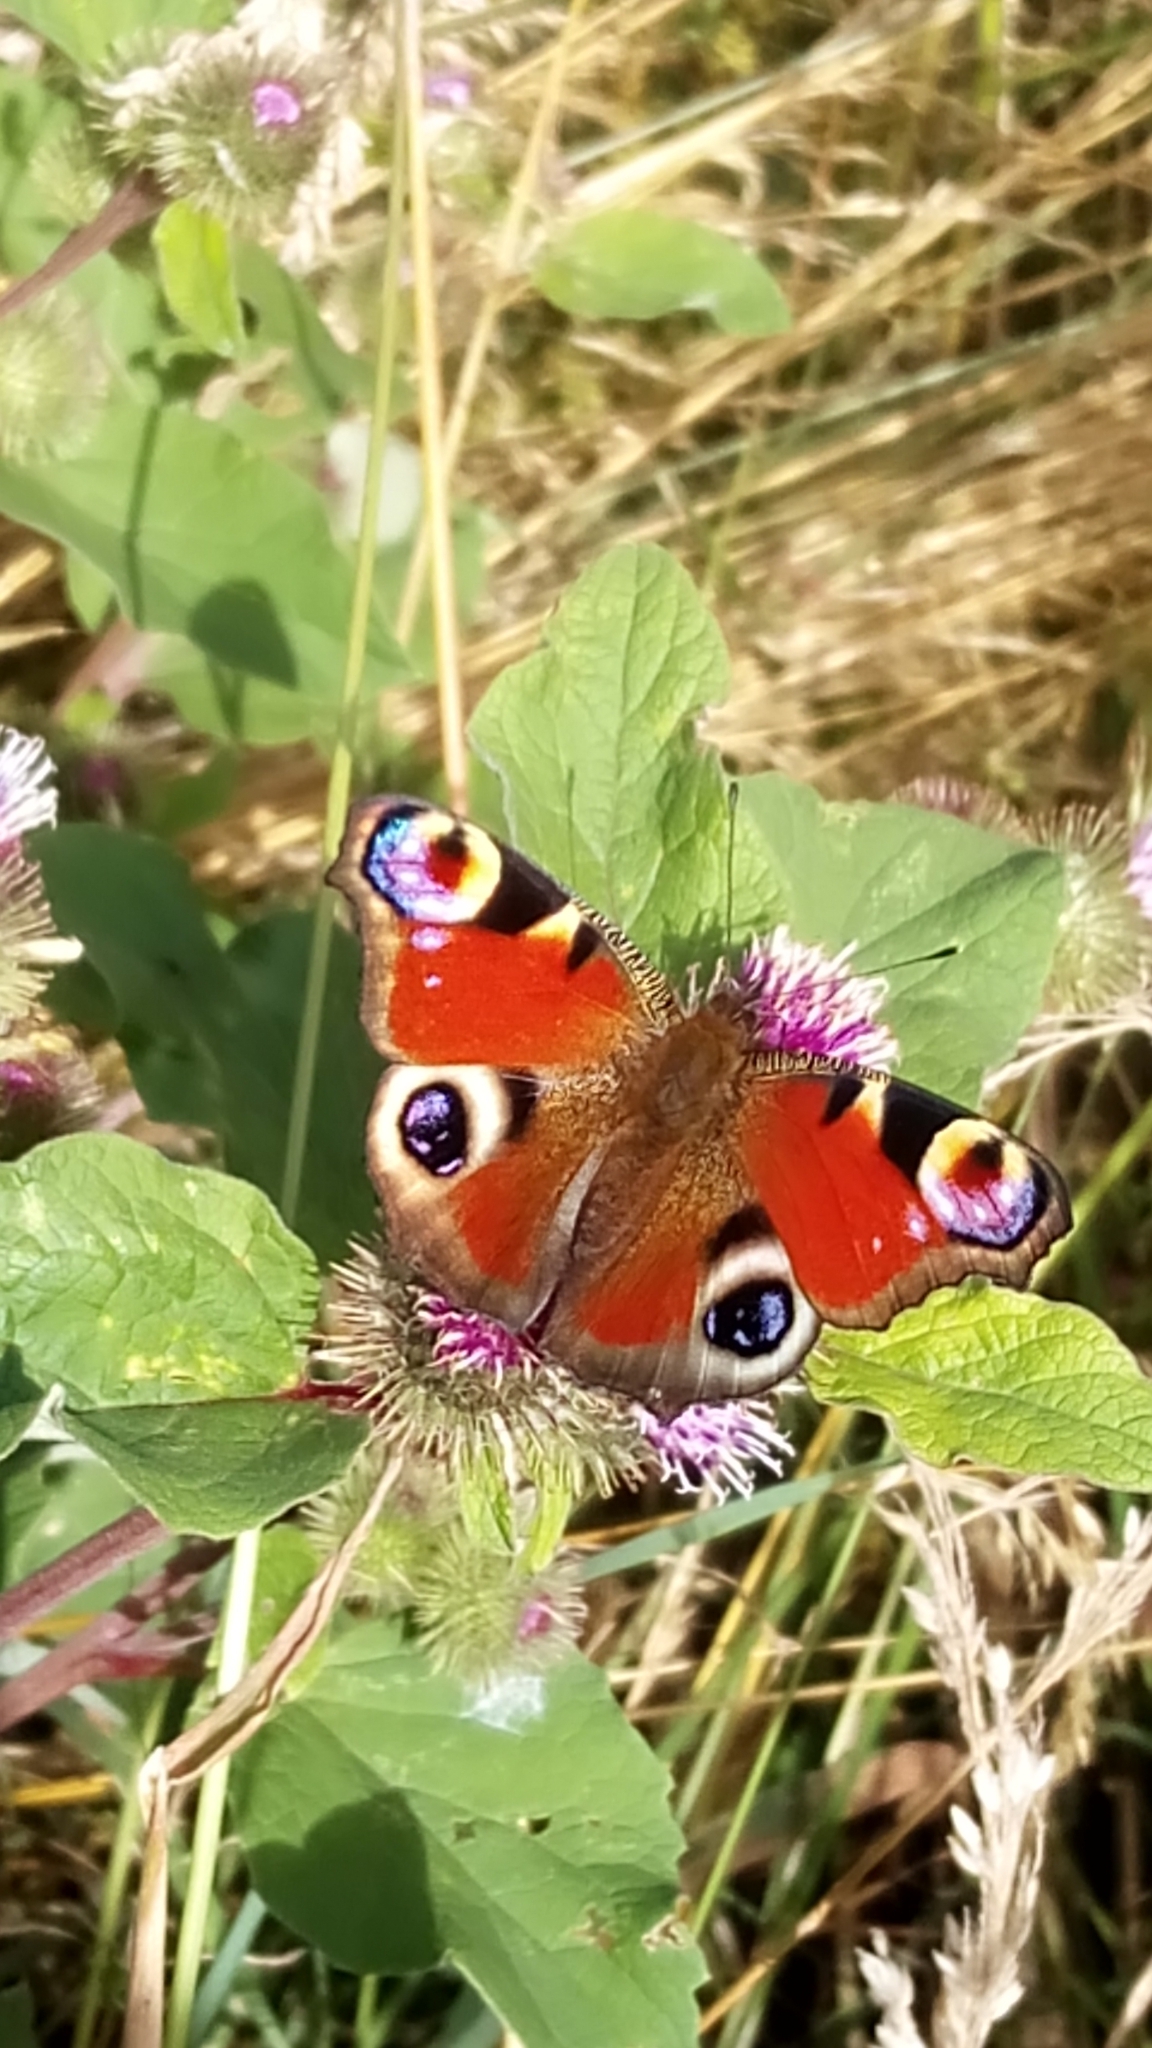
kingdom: Animalia
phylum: Arthropoda
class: Insecta
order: Lepidoptera
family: Nymphalidae
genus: Aglais
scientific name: Aglais io
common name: Peacock
